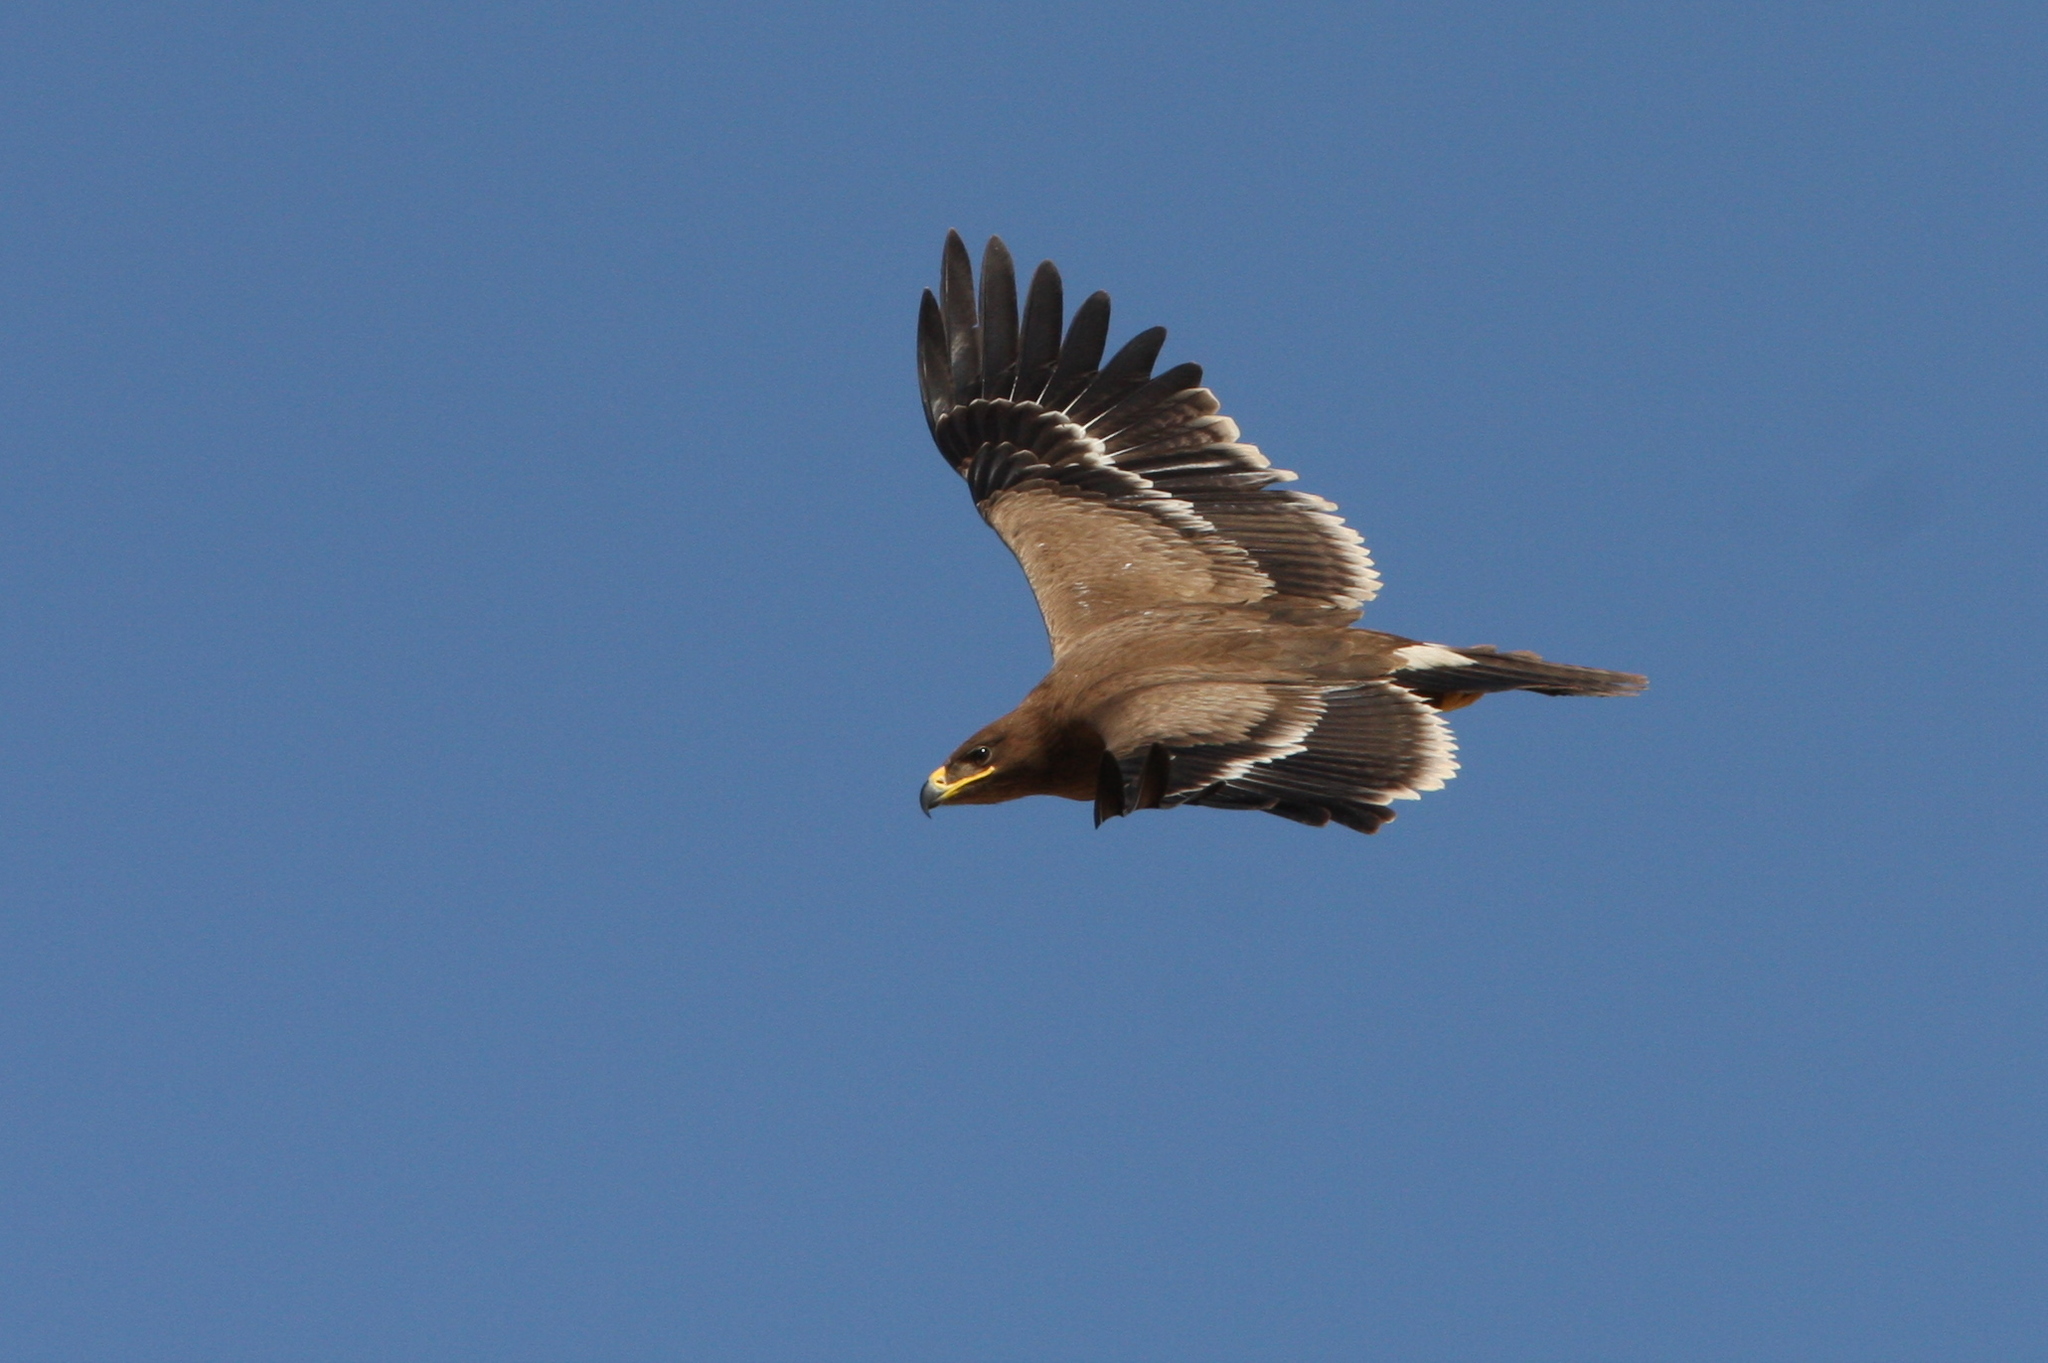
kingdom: Animalia
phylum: Chordata
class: Aves
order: Accipitriformes
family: Accipitridae
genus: Aquila
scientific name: Aquila nipalensis
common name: Steppe eagle
